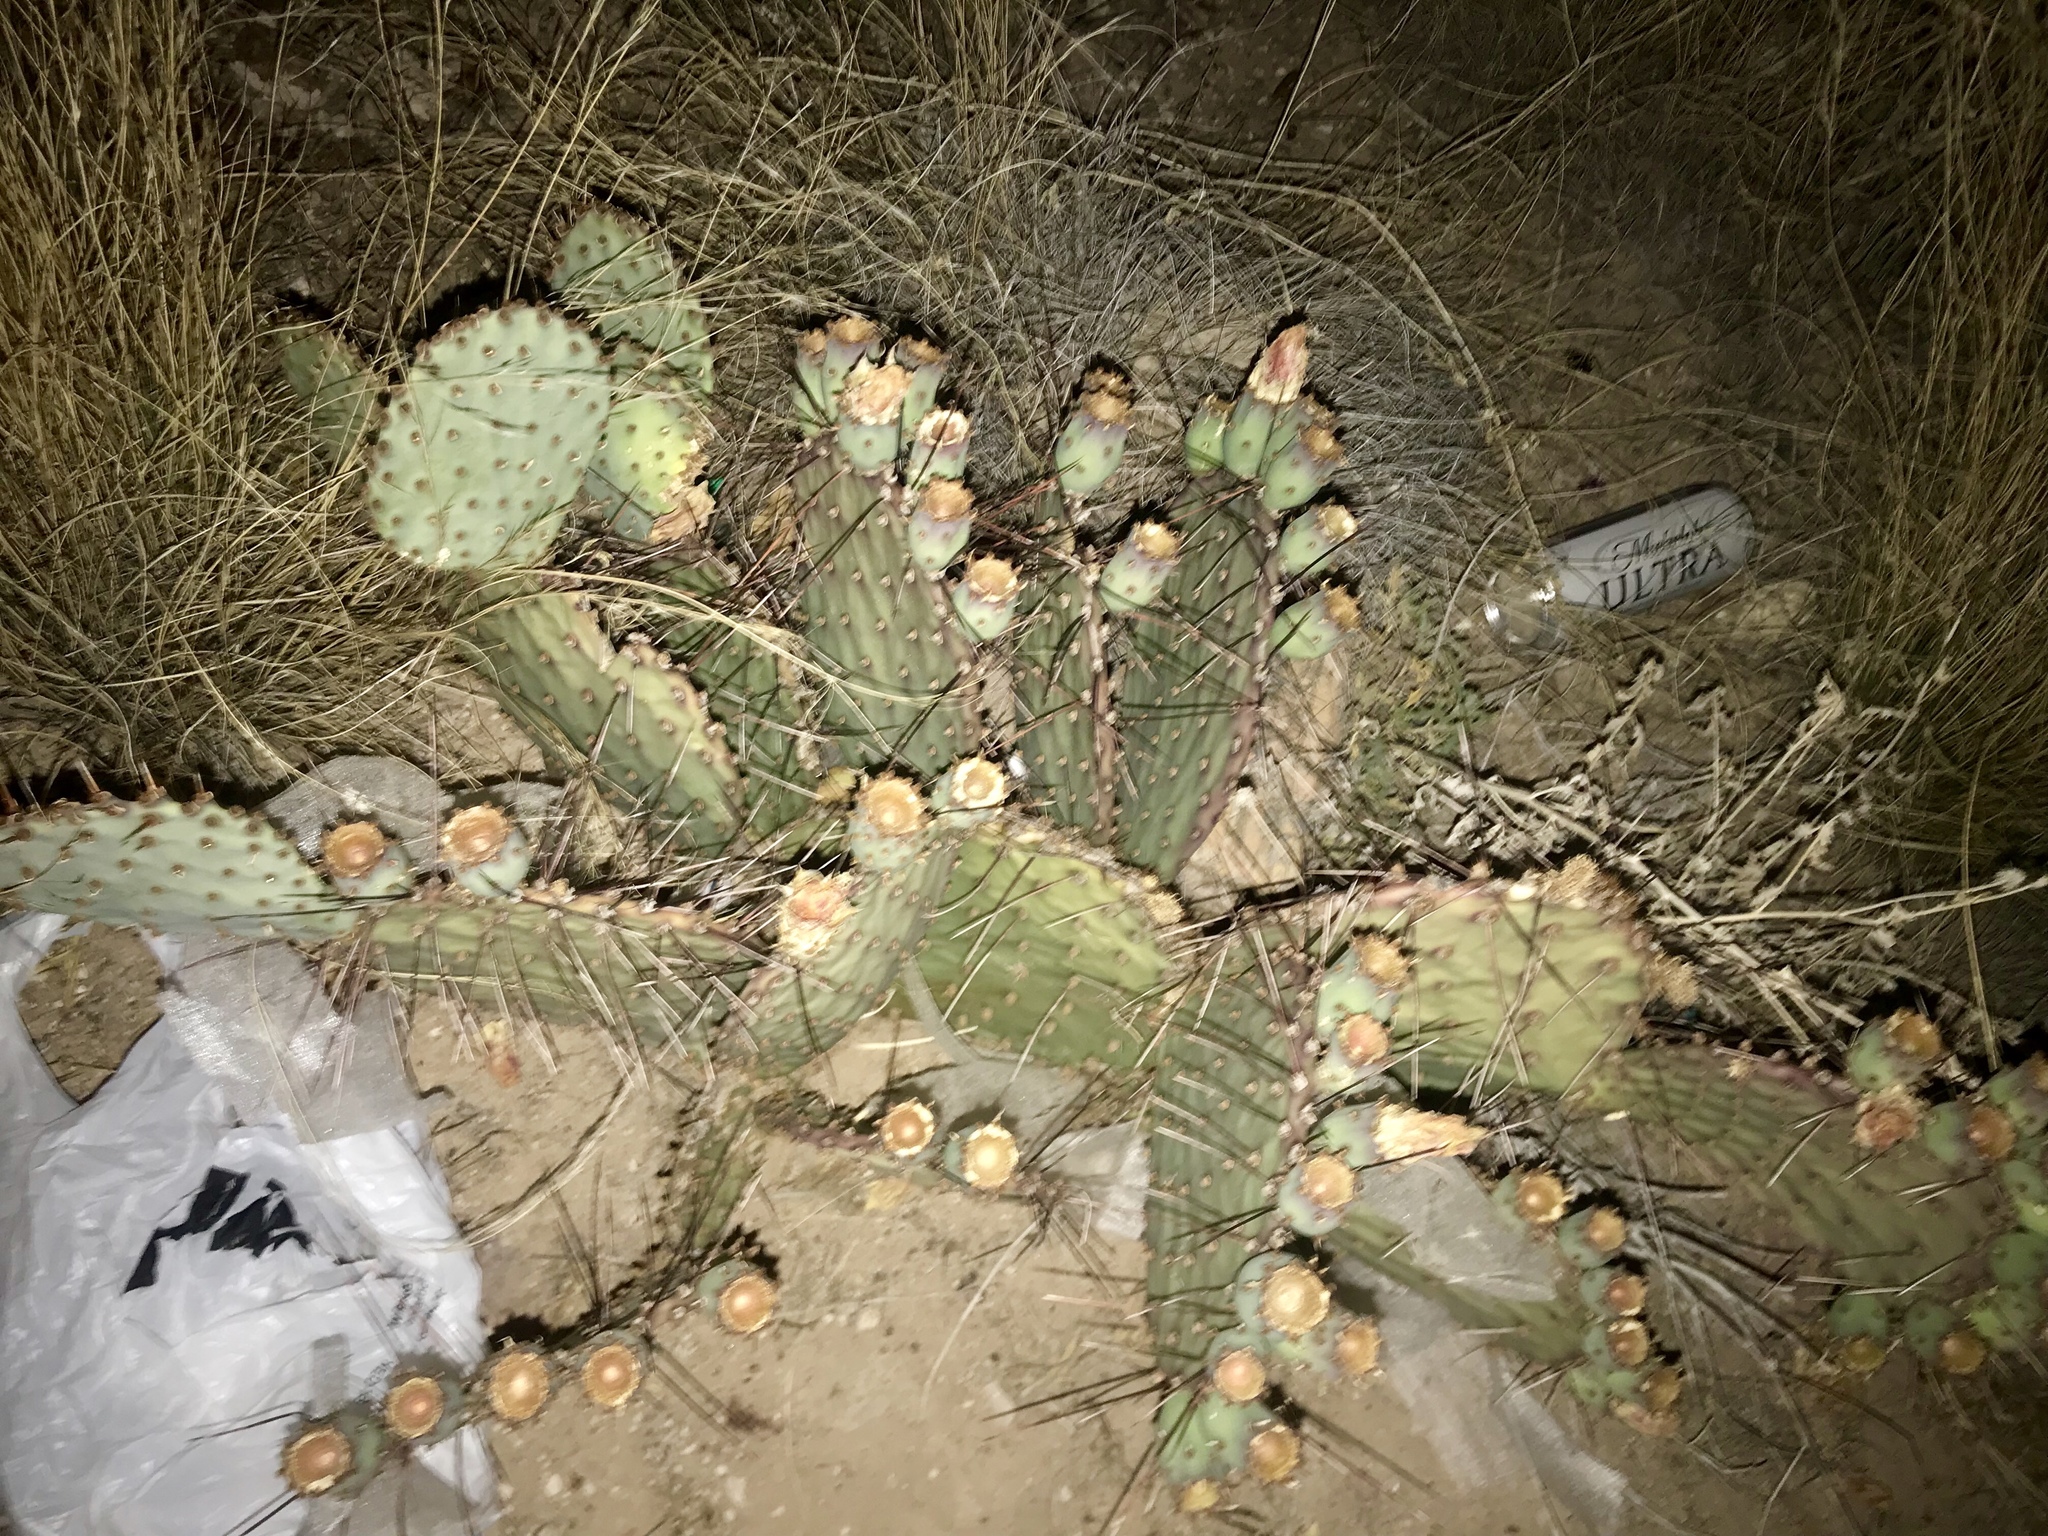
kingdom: Plantae
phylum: Tracheophyta
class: Magnoliopsida
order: Caryophyllales
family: Cactaceae
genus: Opuntia
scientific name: Opuntia macrocentra
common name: Purple prickly-pear
